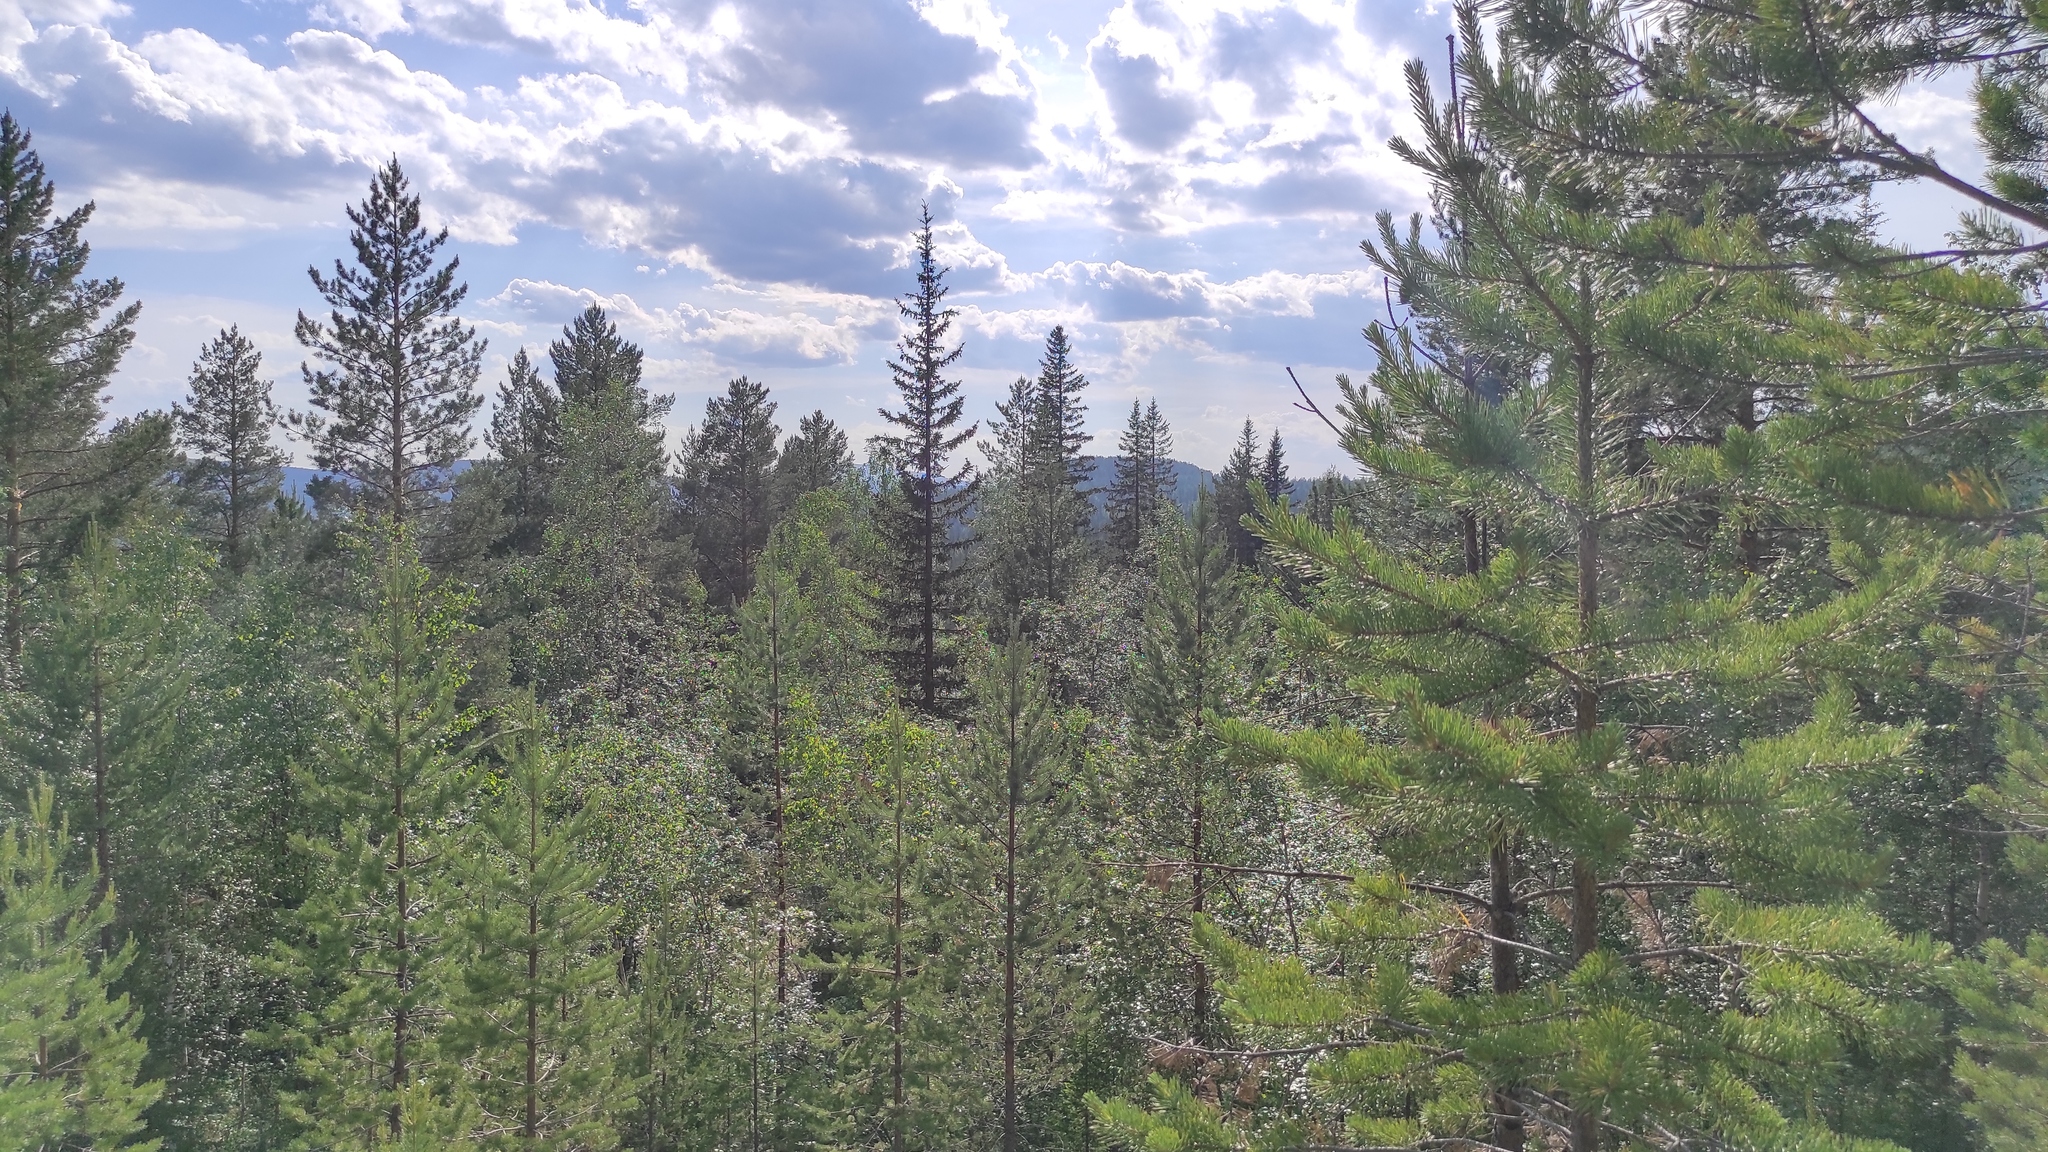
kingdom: Plantae
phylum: Tracheophyta
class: Pinopsida
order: Pinales
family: Pinaceae
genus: Picea
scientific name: Picea obovata
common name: Siberian spruce
